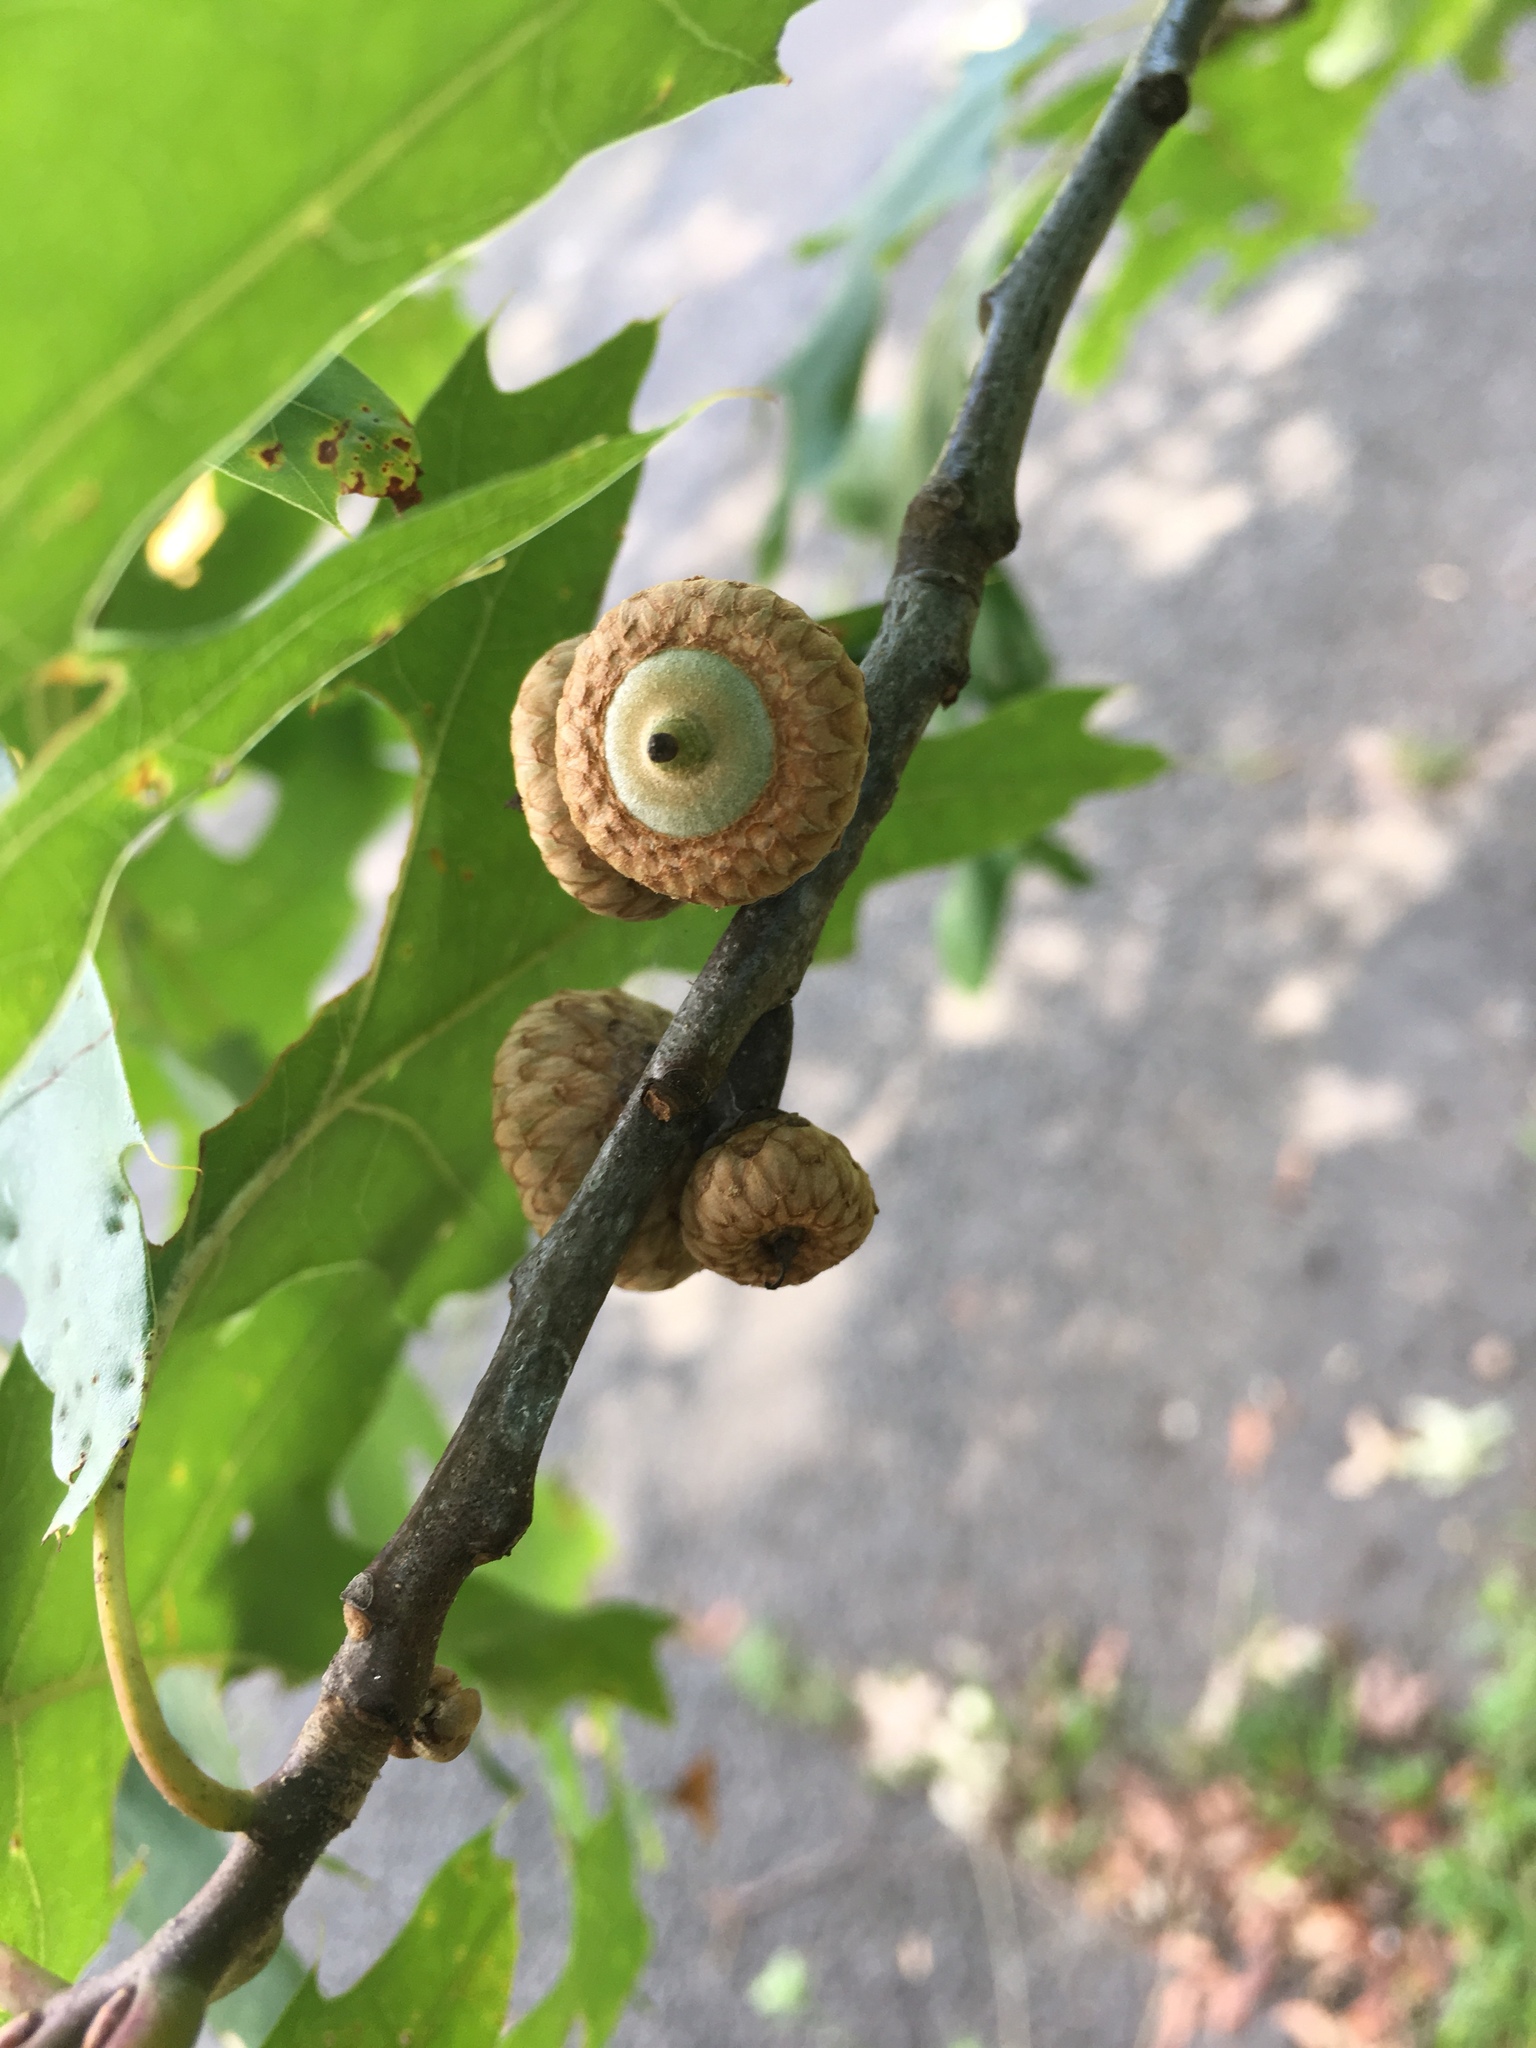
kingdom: Plantae
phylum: Tracheophyta
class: Magnoliopsida
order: Fagales
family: Fagaceae
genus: Quercus
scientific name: Quercus rubra
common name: Red oak
